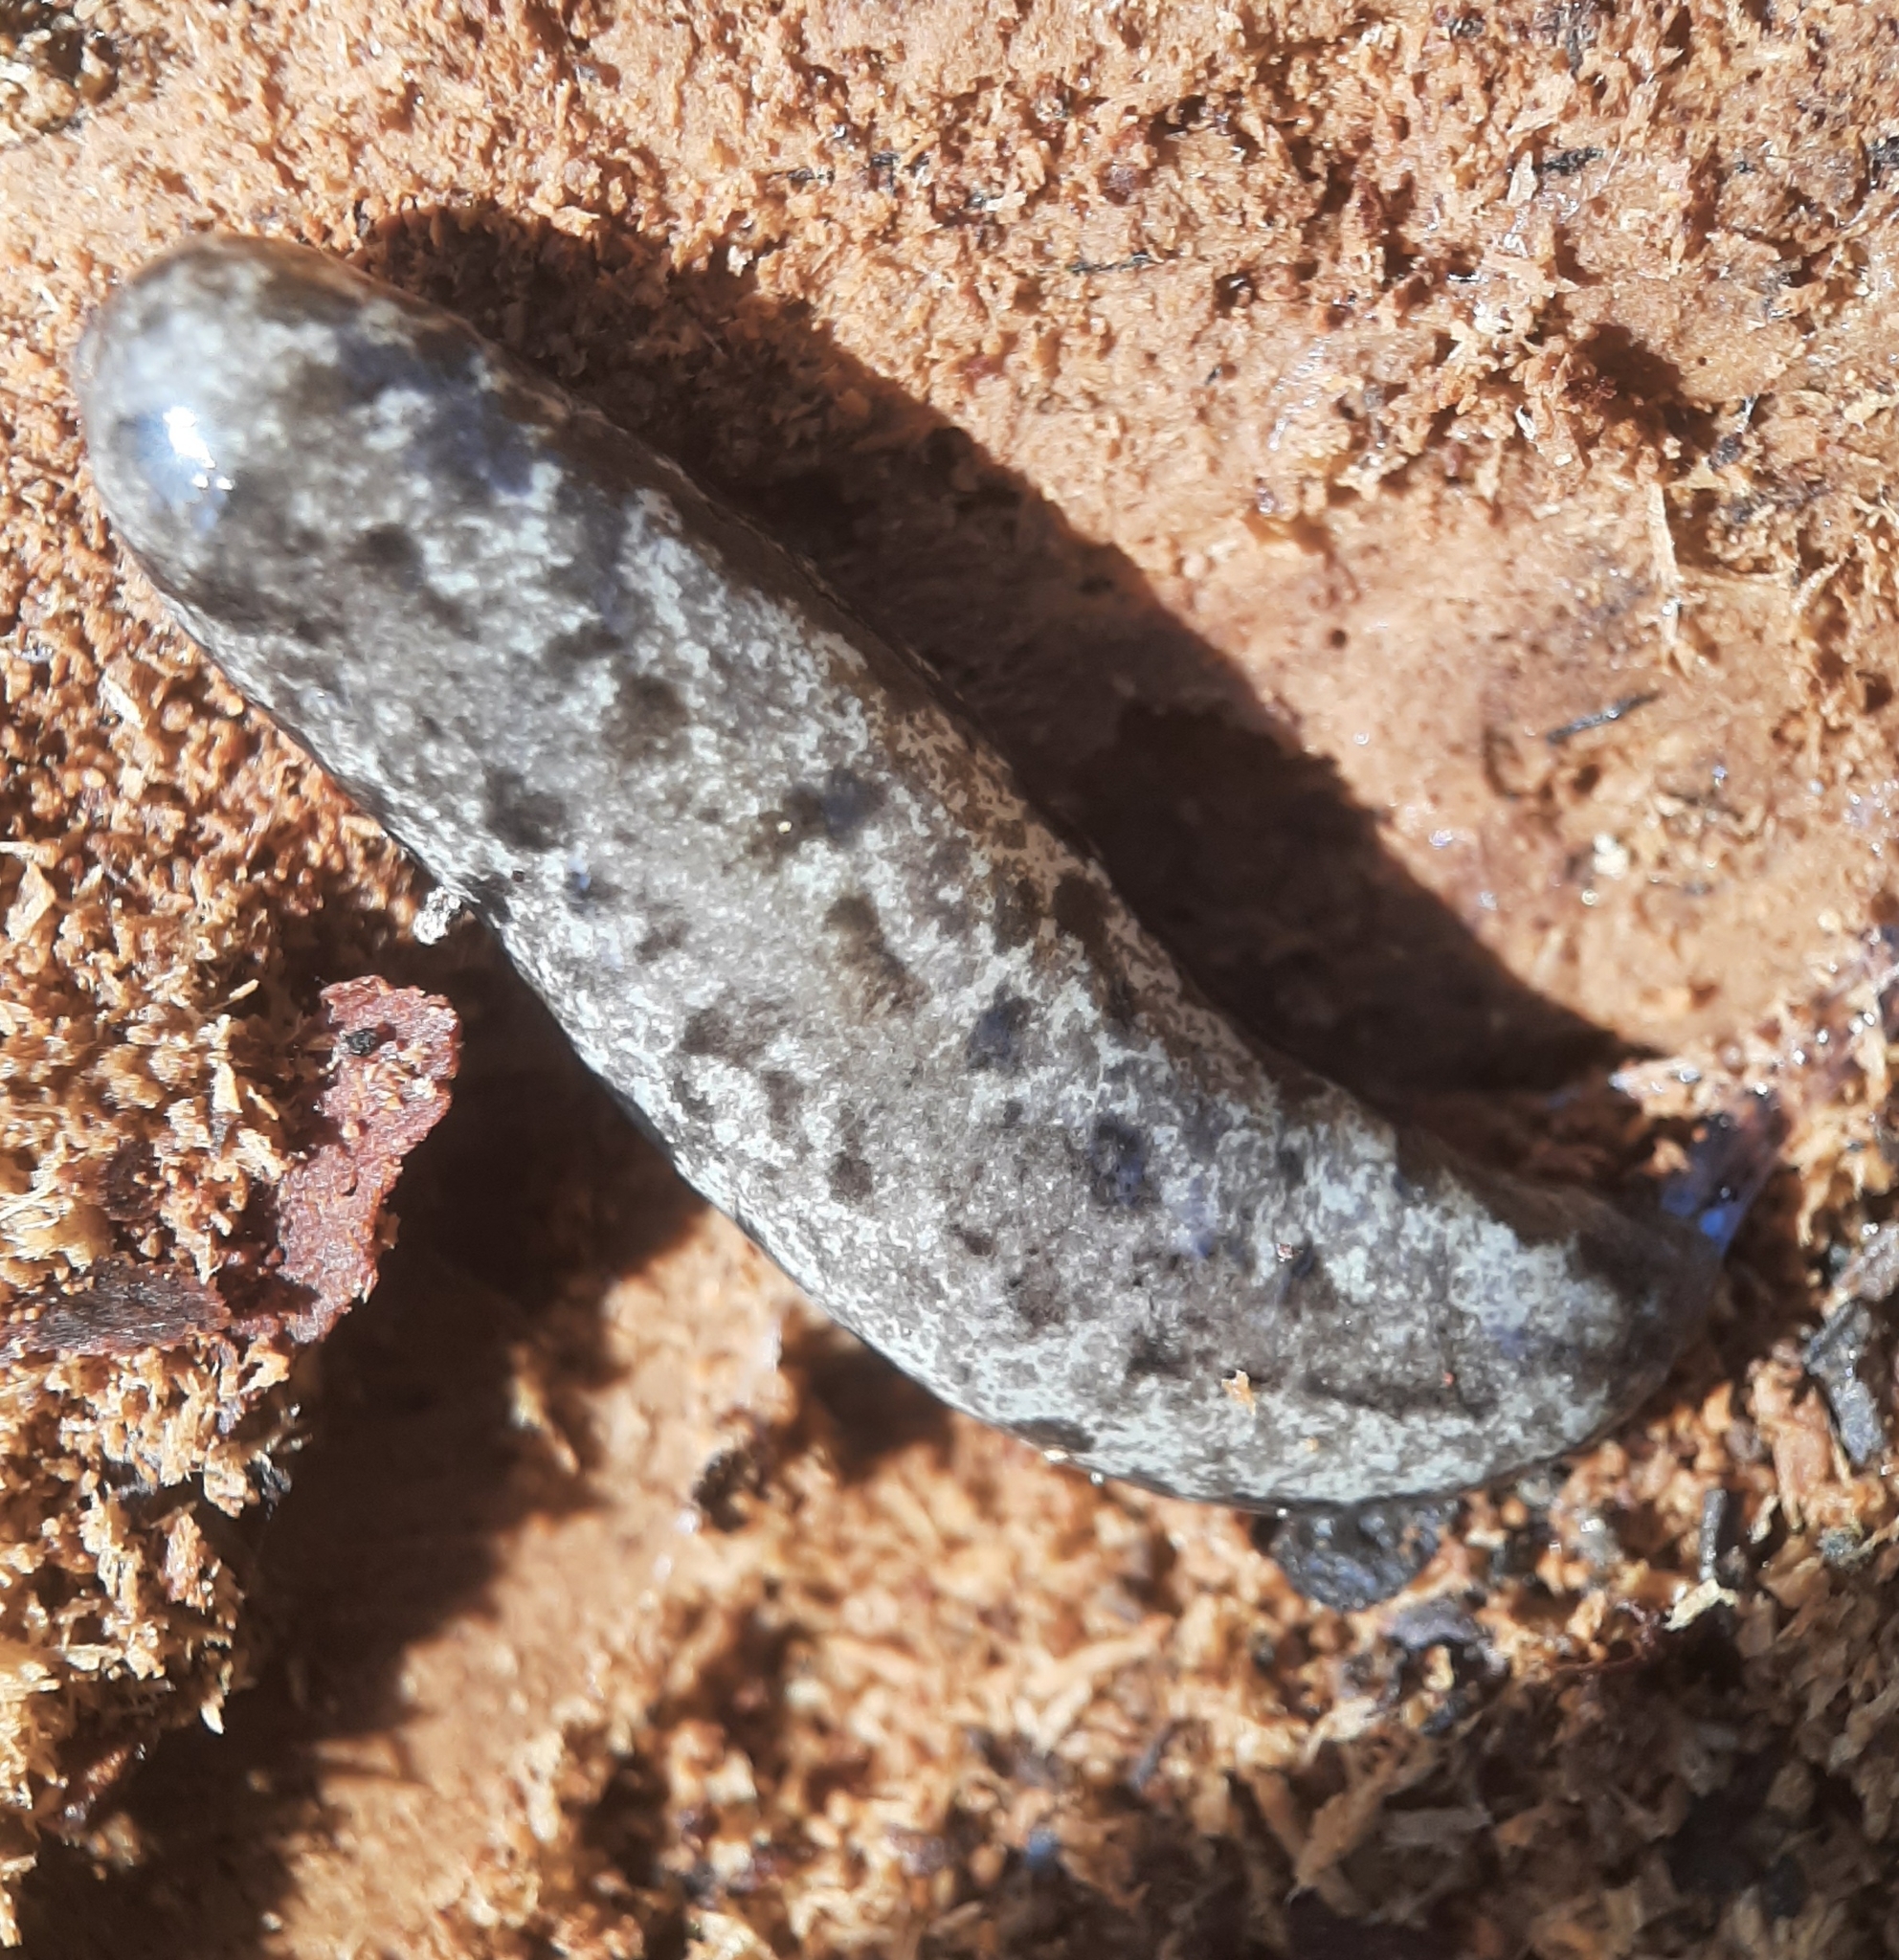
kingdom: Animalia
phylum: Mollusca
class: Gastropoda
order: Stylommatophora
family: Philomycidae
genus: Megapallifera
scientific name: Megapallifera mutabilis
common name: Changeable mantleslug
